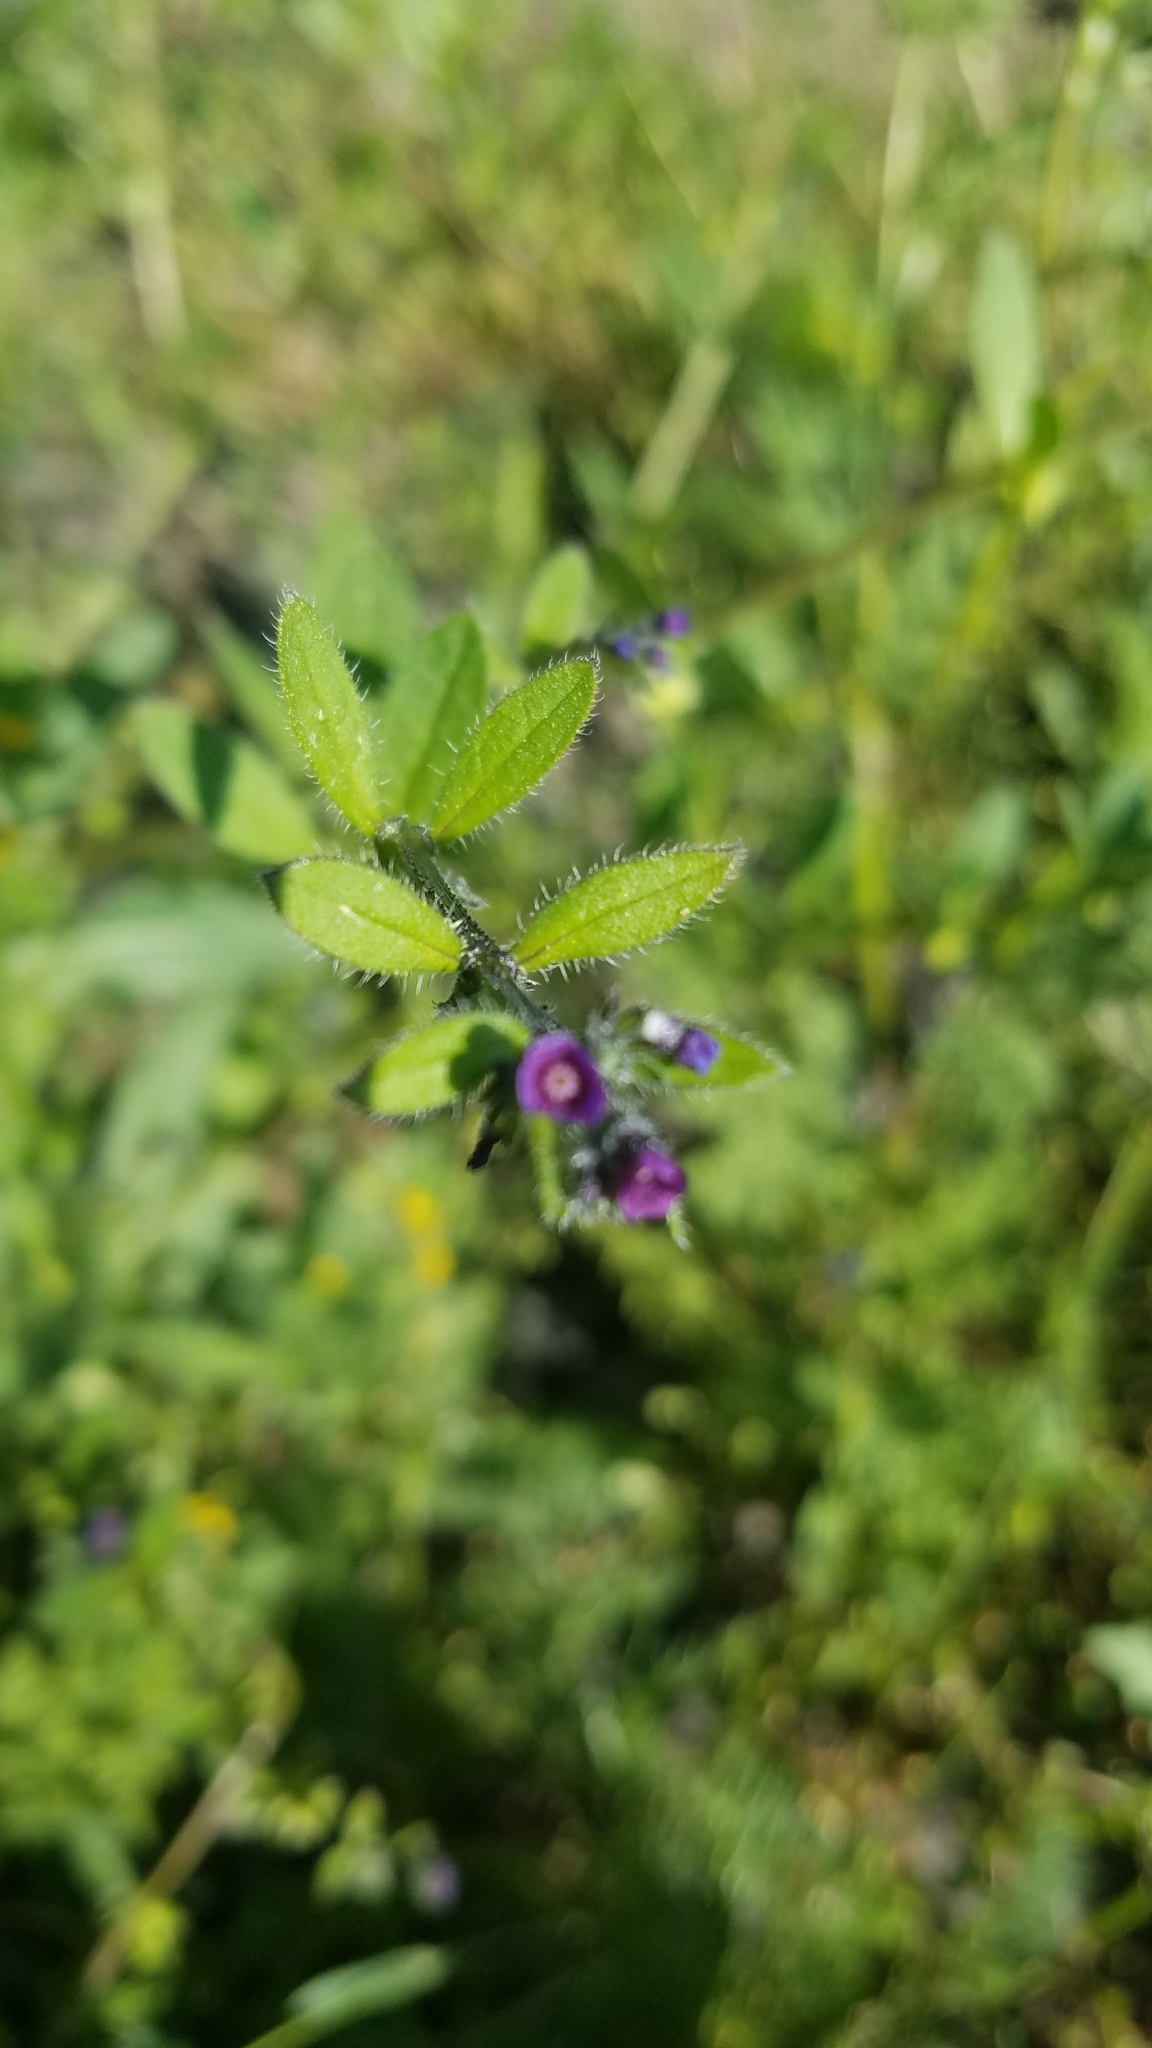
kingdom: Plantae
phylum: Tracheophyta
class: Magnoliopsida
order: Boraginales
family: Boraginaceae
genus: Asperugo
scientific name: Asperugo procumbens
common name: Madwort
